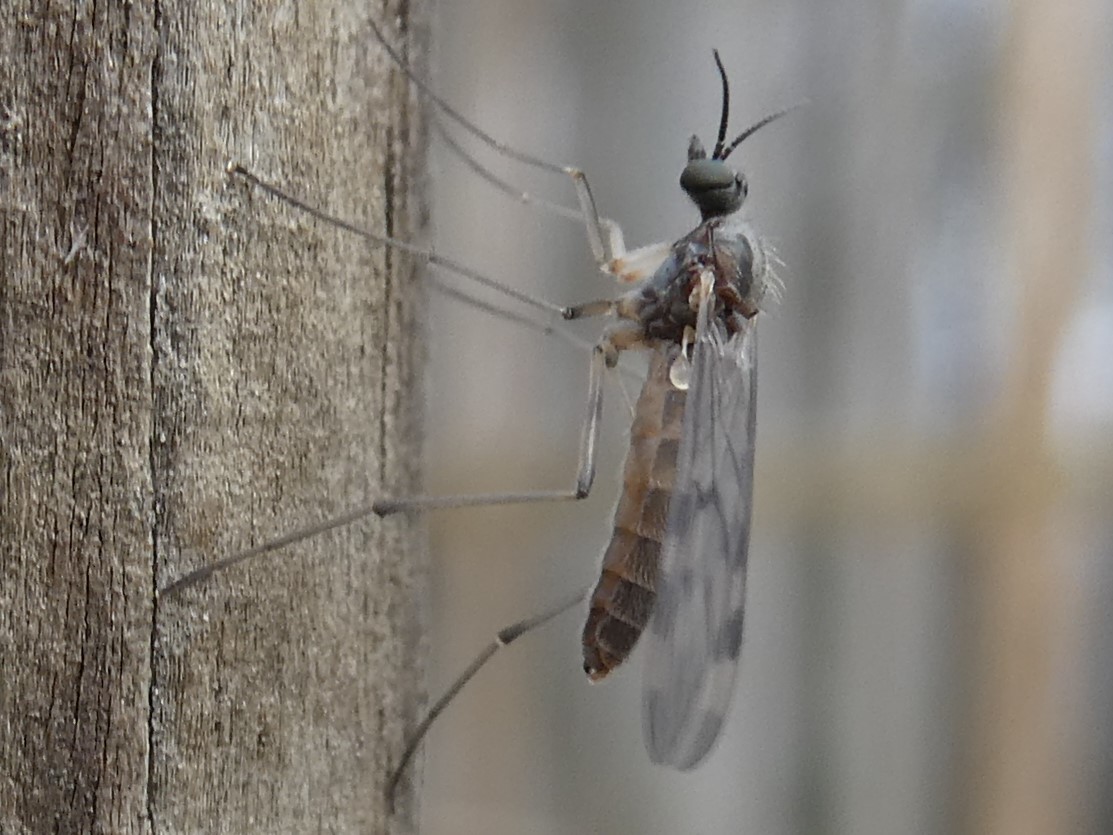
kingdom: Animalia
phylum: Arthropoda
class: Insecta
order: Diptera
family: Anisopodidae
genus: Sylvicola
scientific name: Sylvicola fenestralis
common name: Window gnat
